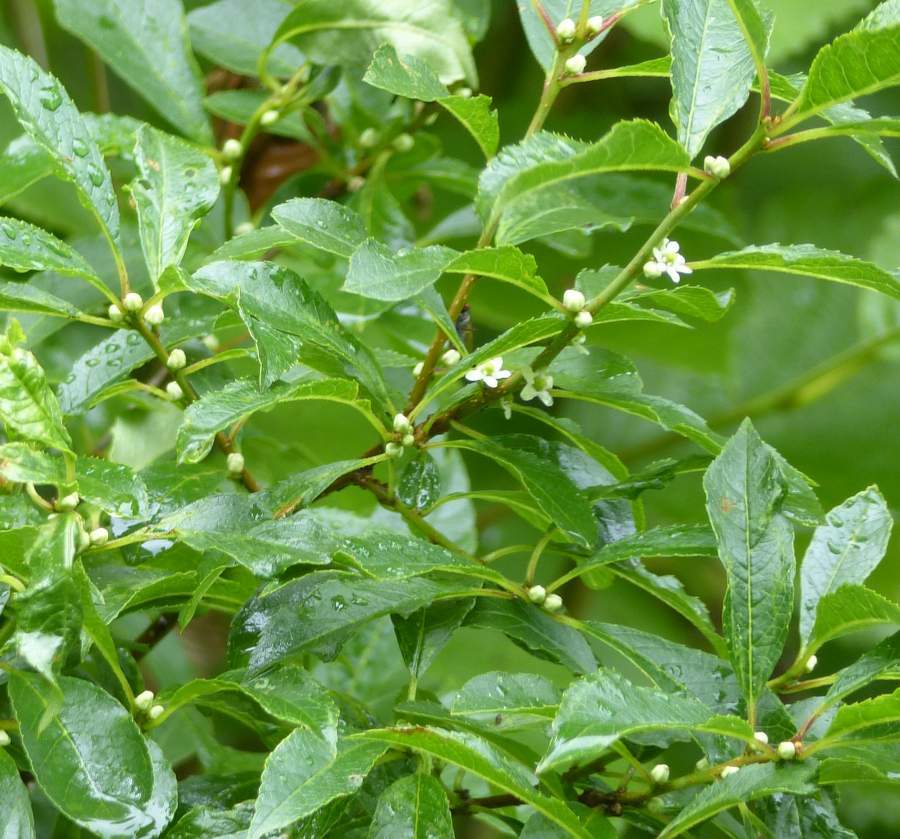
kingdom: Plantae
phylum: Tracheophyta
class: Magnoliopsida
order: Aquifoliales
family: Aquifoliaceae
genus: Ilex
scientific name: Ilex verticillata
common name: Virginia winterberry
